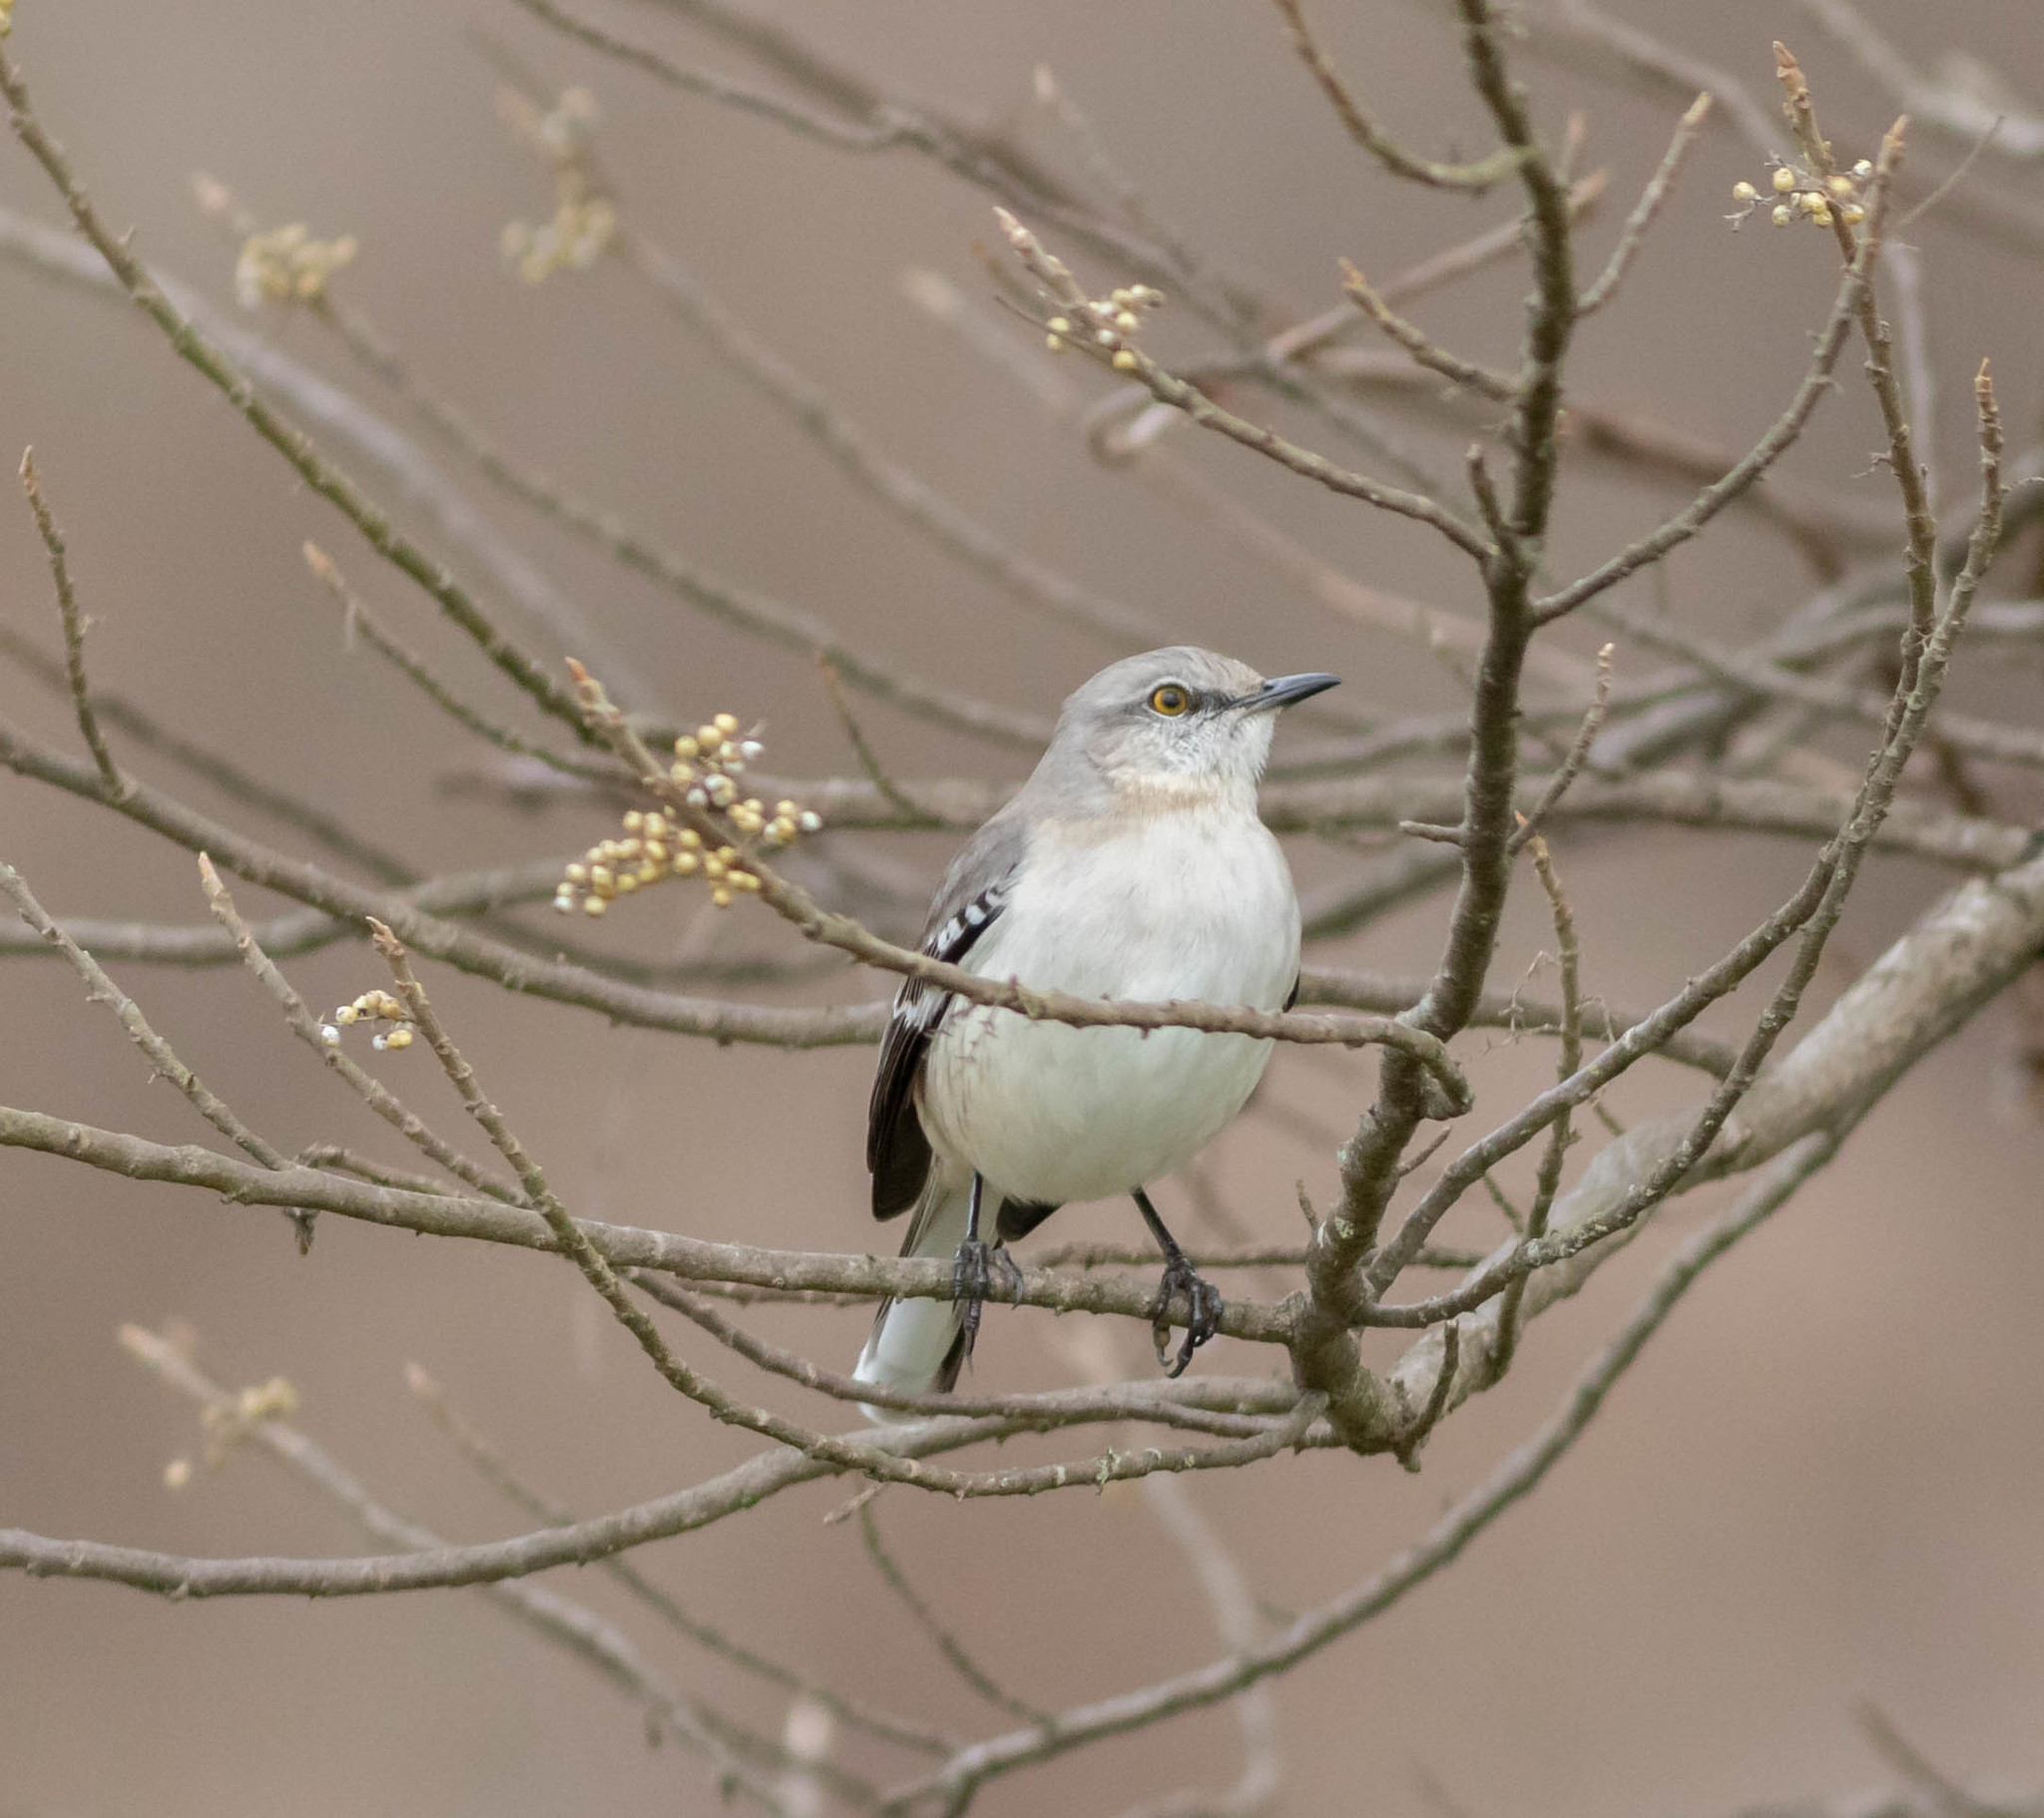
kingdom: Animalia
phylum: Chordata
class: Aves
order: Passeriformes
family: Mimidae
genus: Mimus
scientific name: Mimus polyglottos
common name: Northern mockingbird
